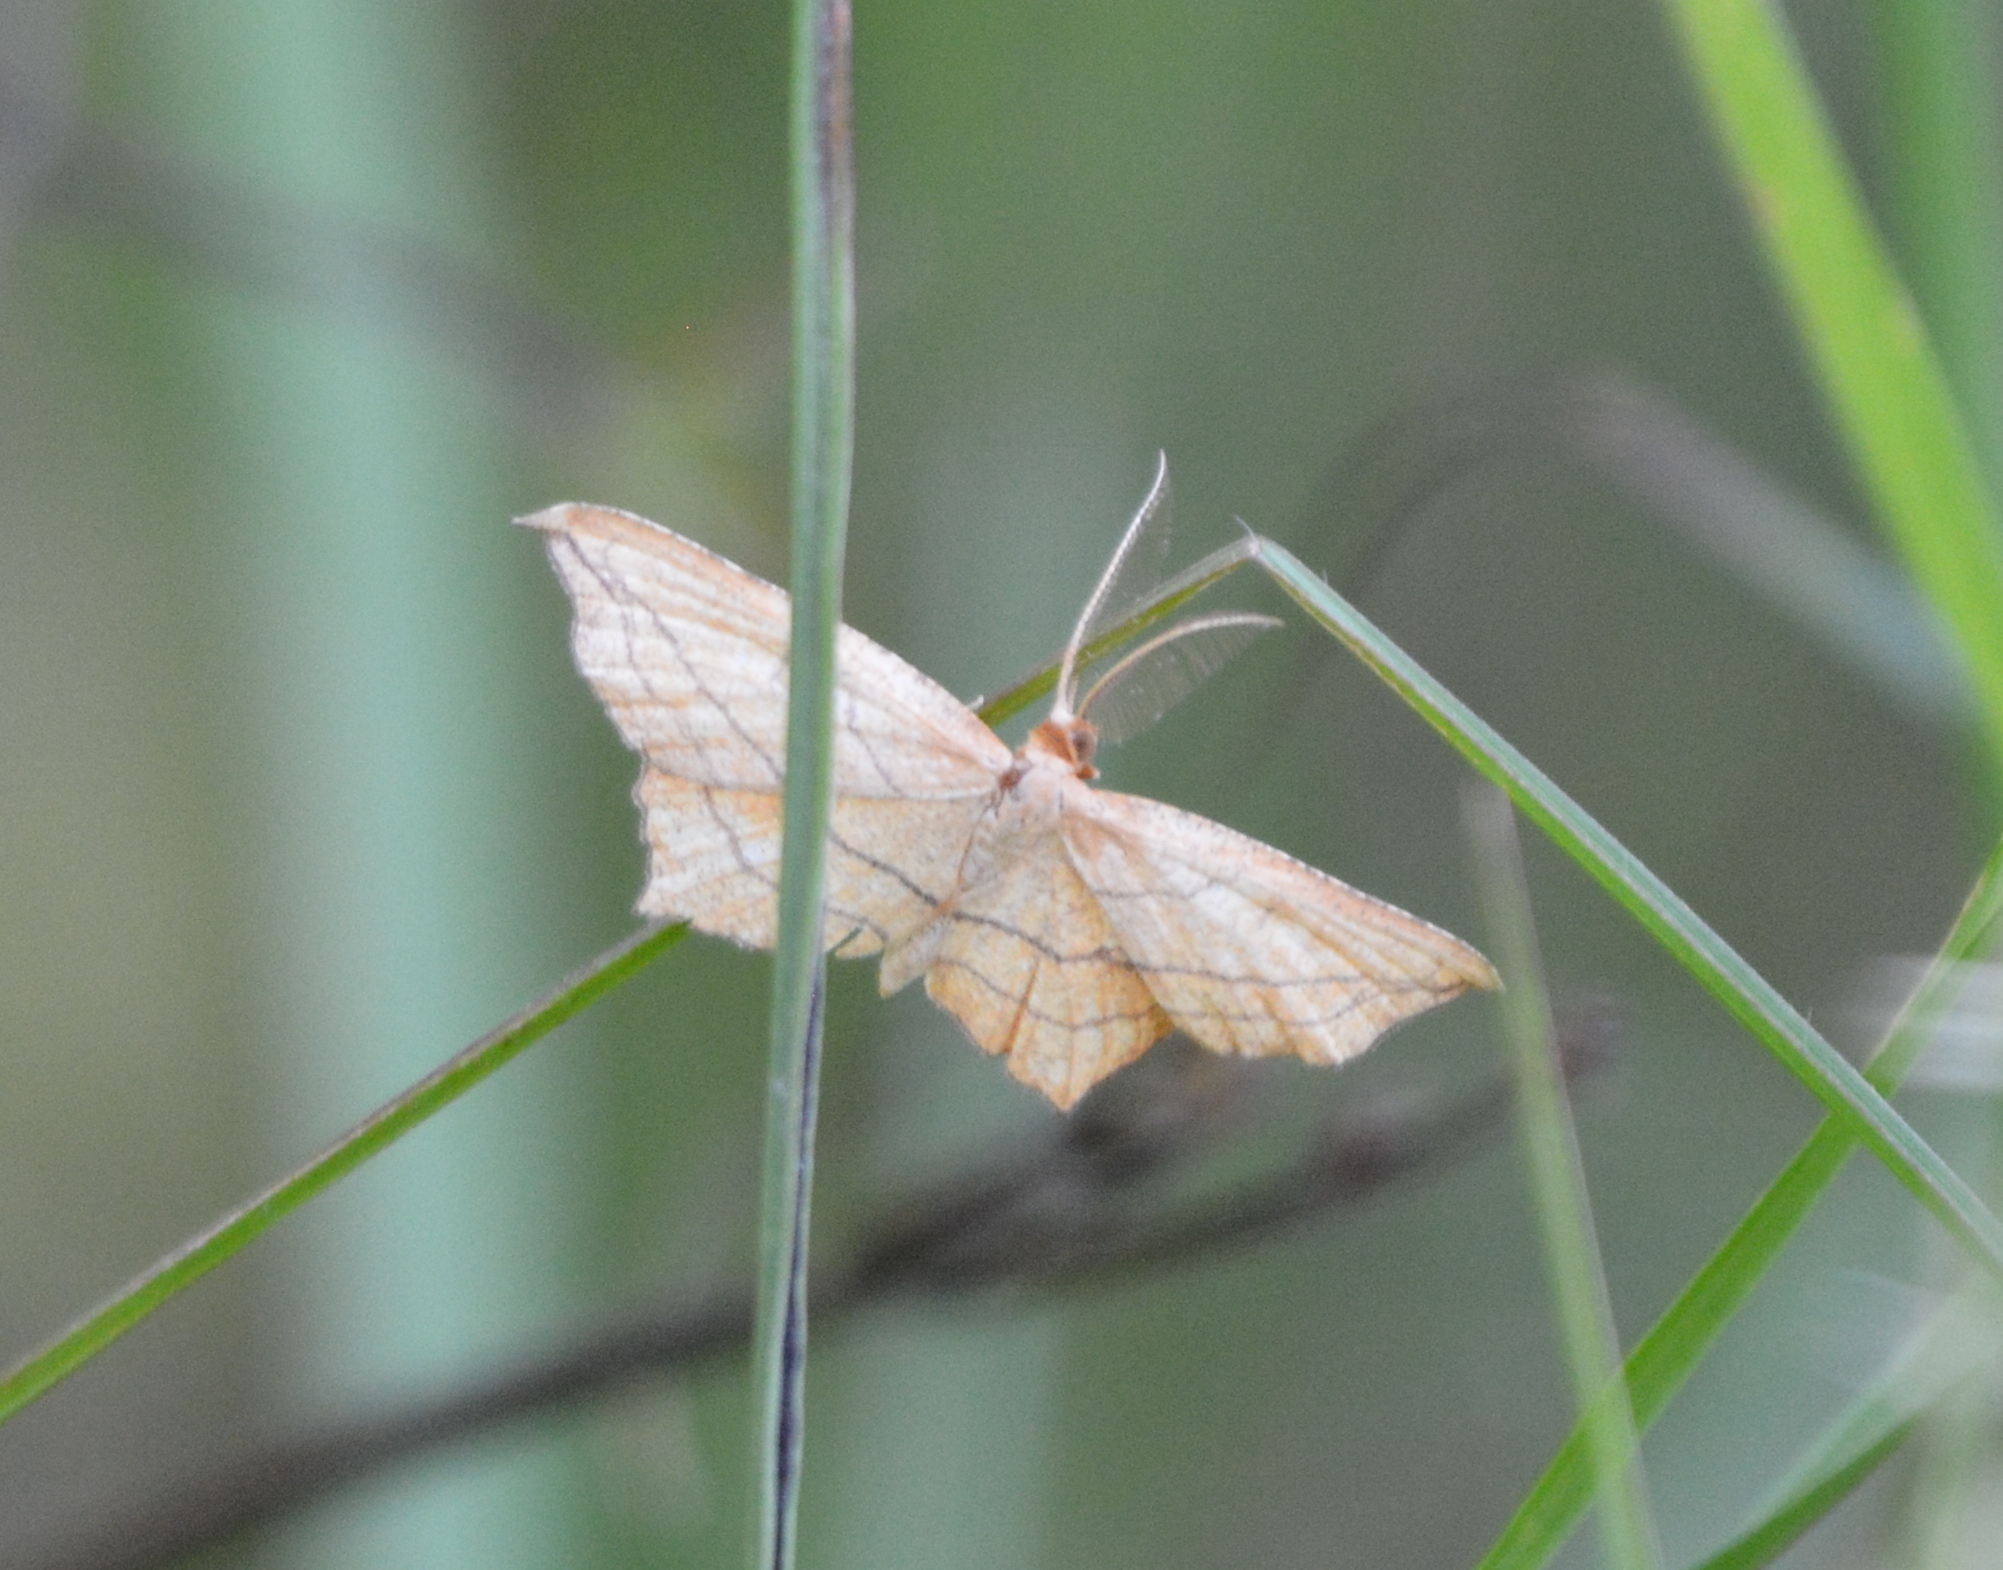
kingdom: Animalia
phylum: Arthropoda
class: Insecta
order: Lepidoptera
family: Geometridae
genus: Timandra
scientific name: Timandra amaturaria
